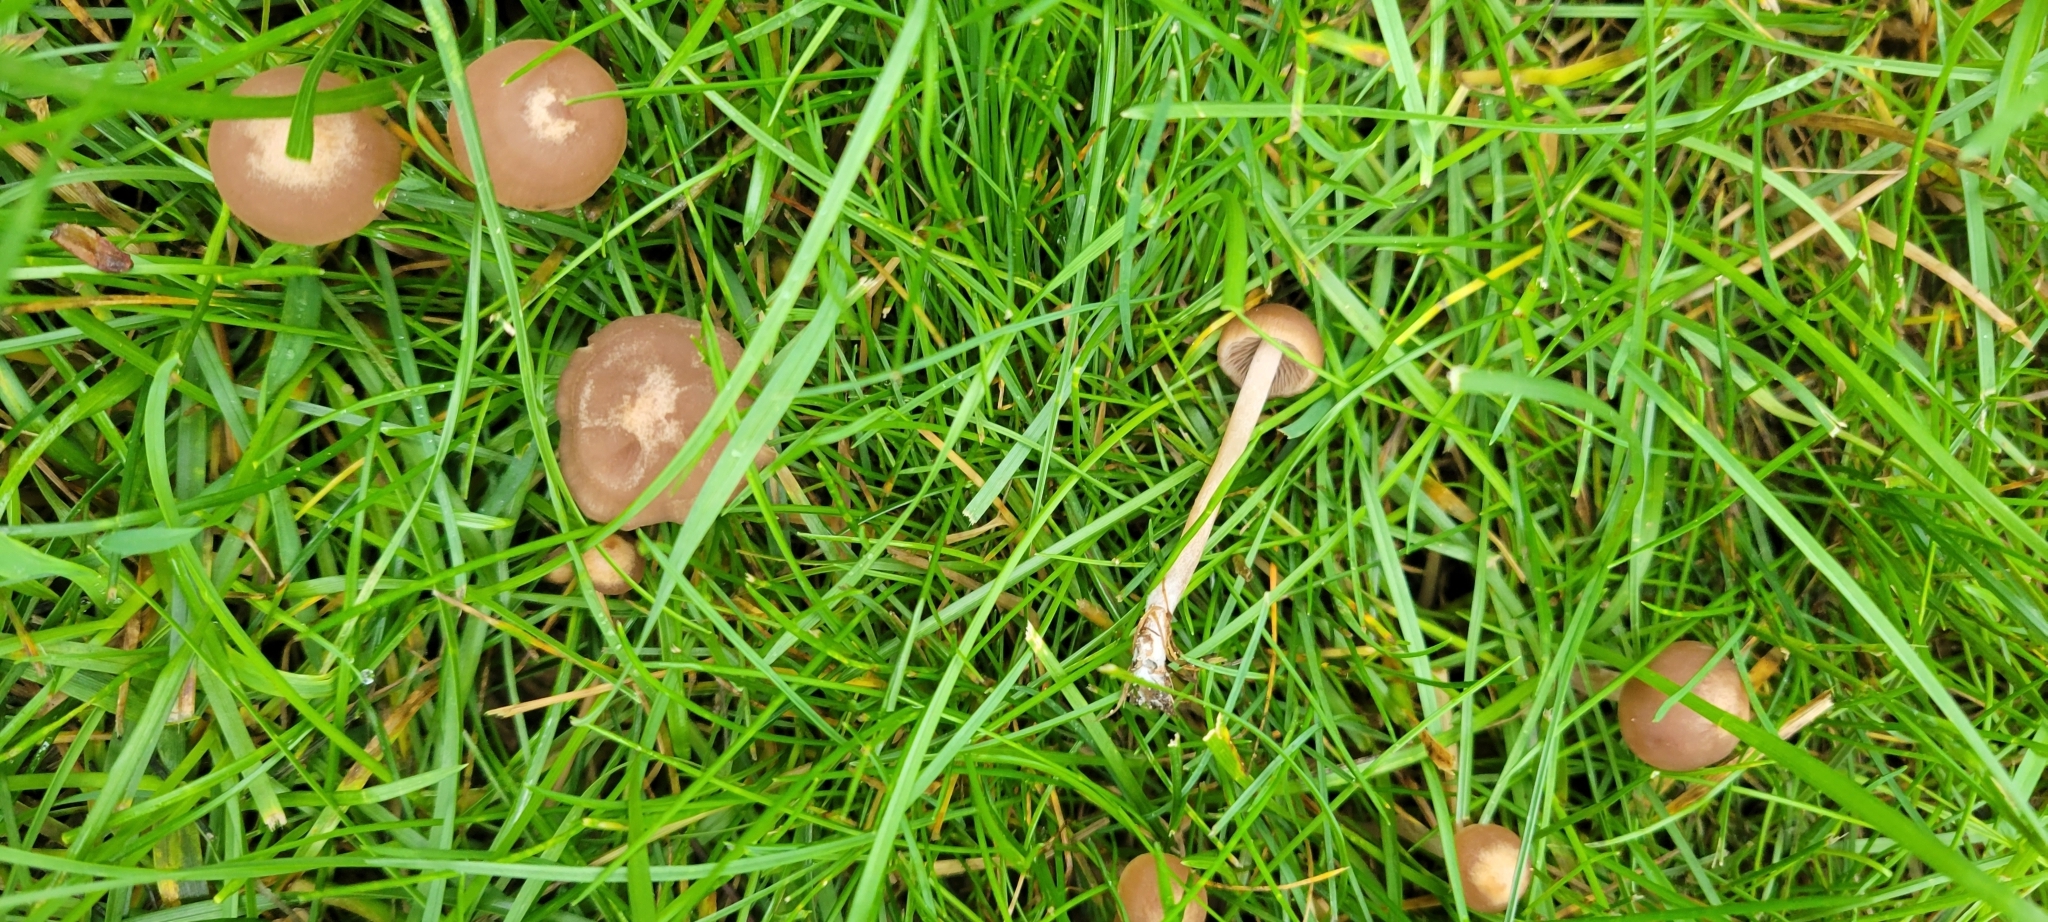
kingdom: Fungi
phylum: Basidiomycota
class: Agaricomycetes
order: Agaricales
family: Bolbitiaceae
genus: Panaeolina
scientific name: Panaeolina foenisecii
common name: Brown hay cap
